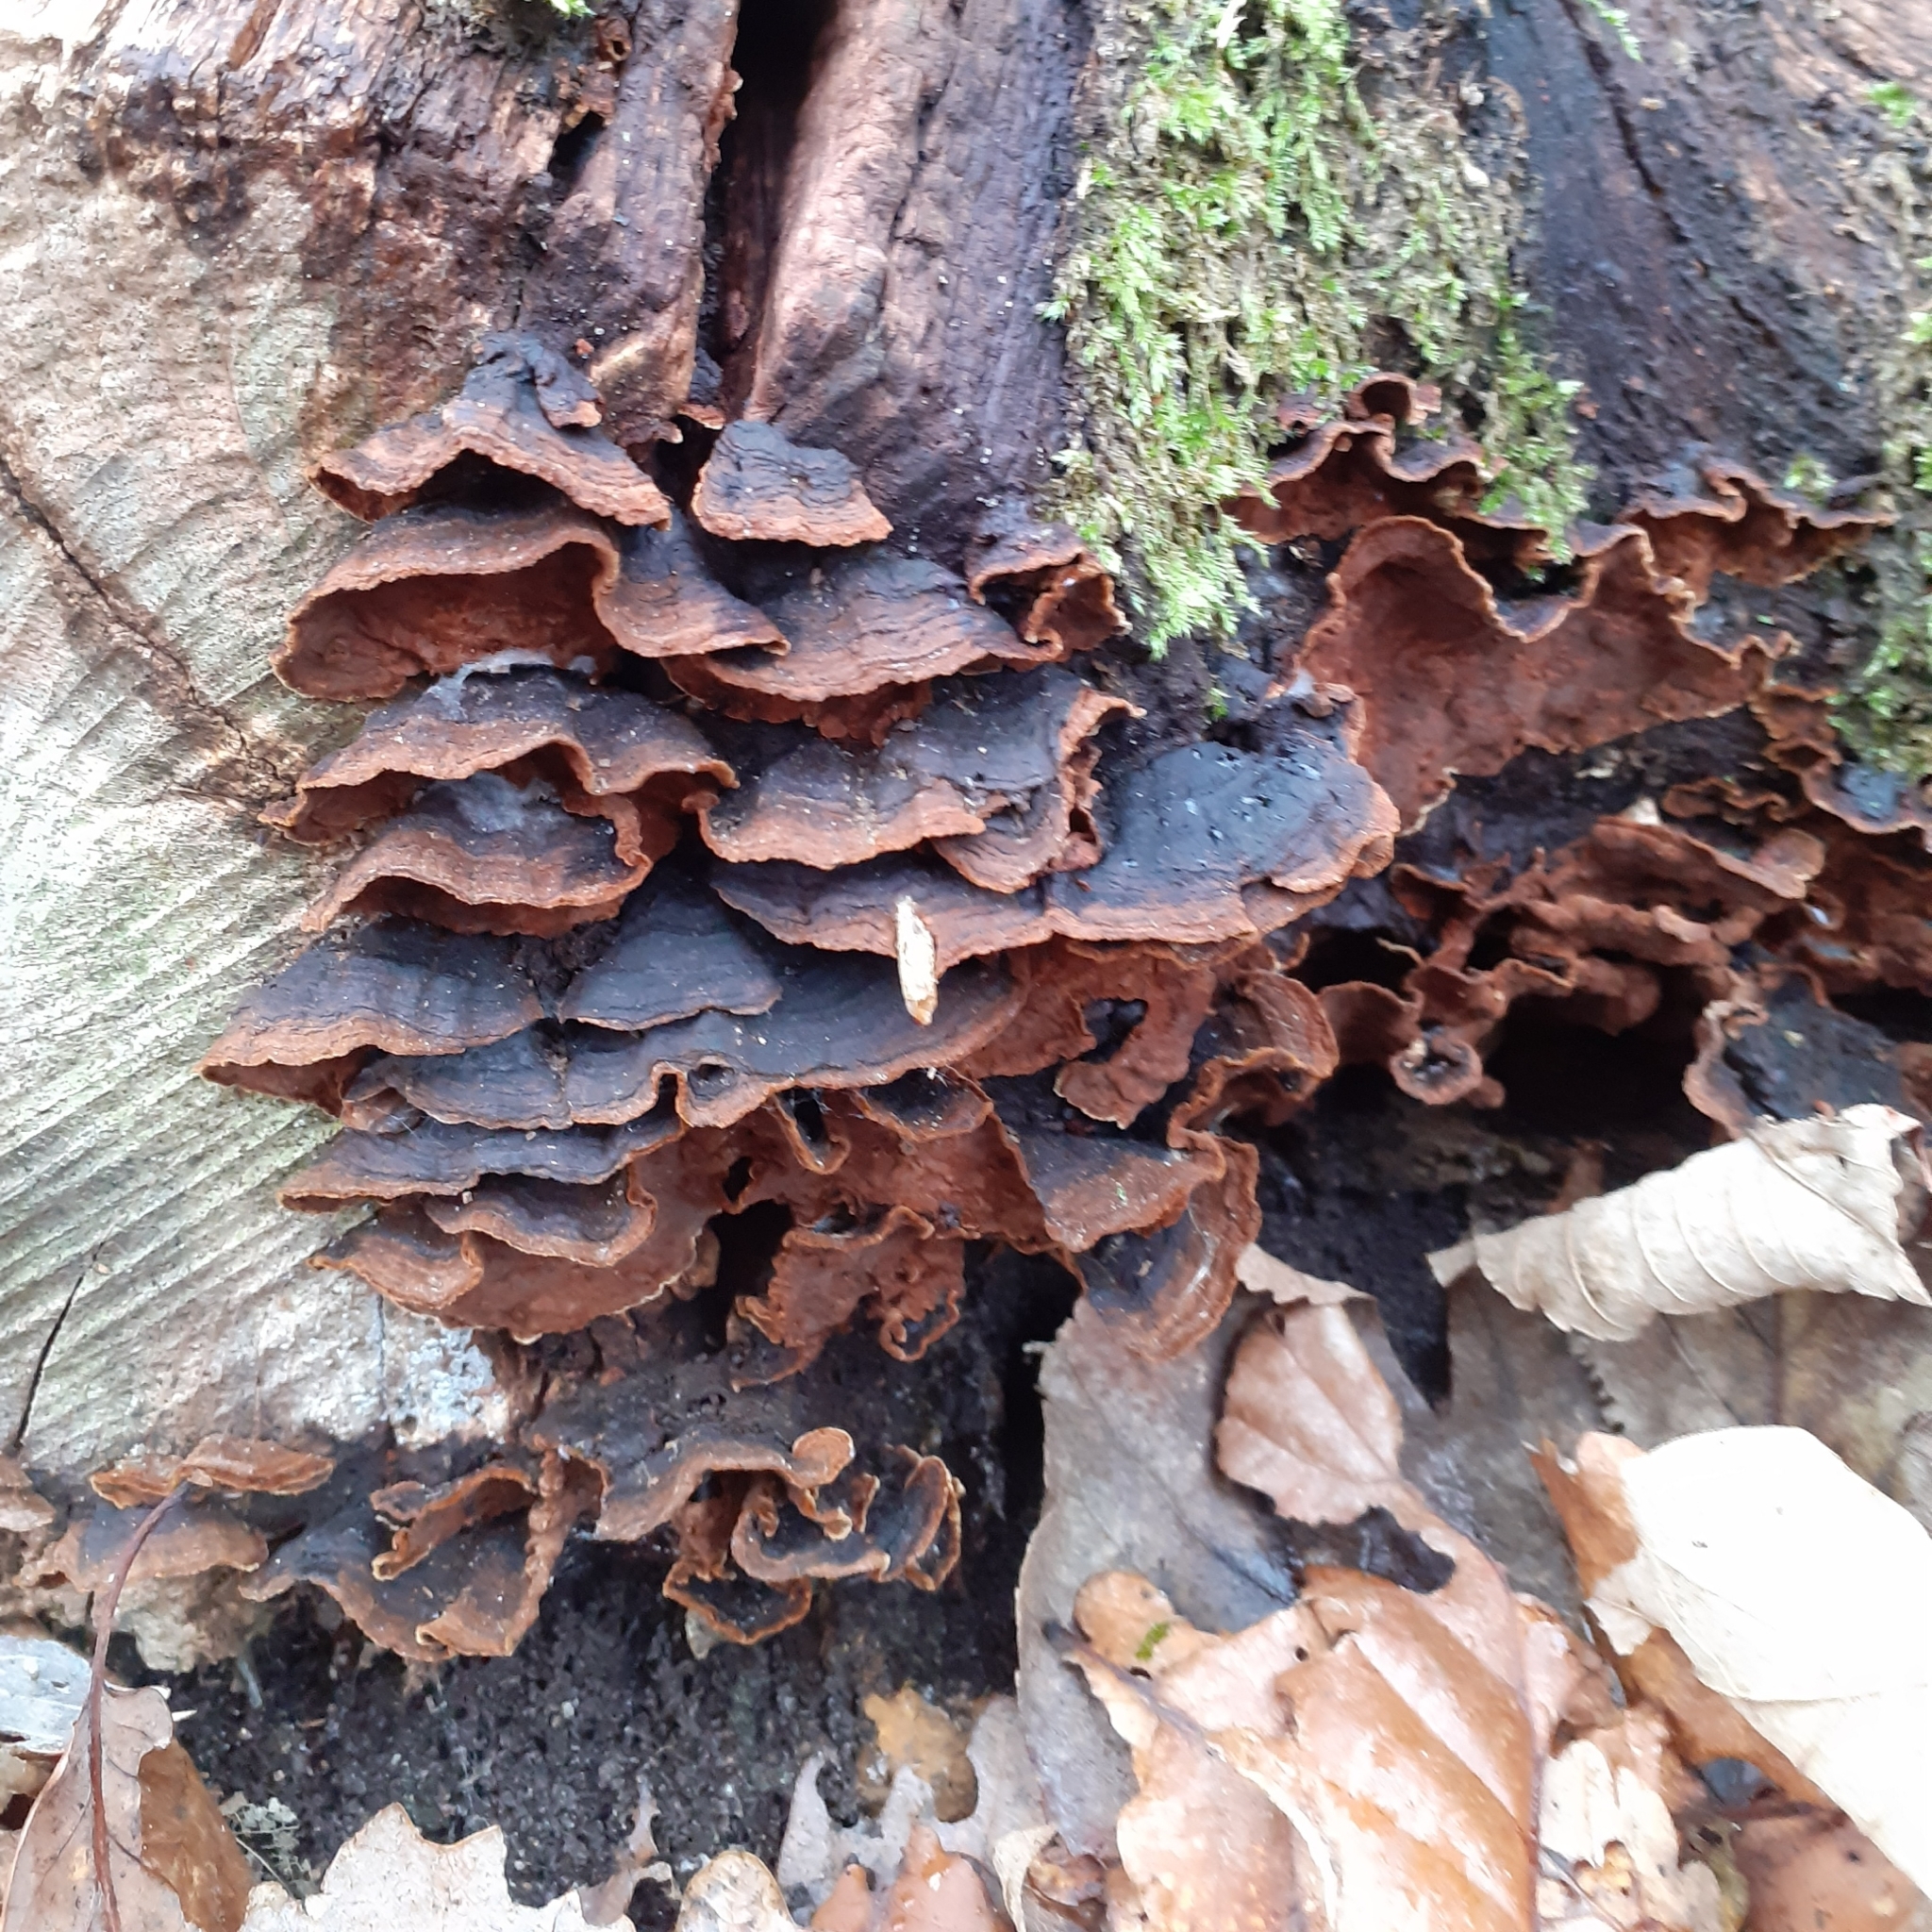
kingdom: Fungi
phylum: Basidiomycota
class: Agaricomycetes
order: Hymenochaetales
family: Hymenochaetaceae
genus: Hymenochaete
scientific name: Hymenochaete rubiginosa
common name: Oak curtain crust
